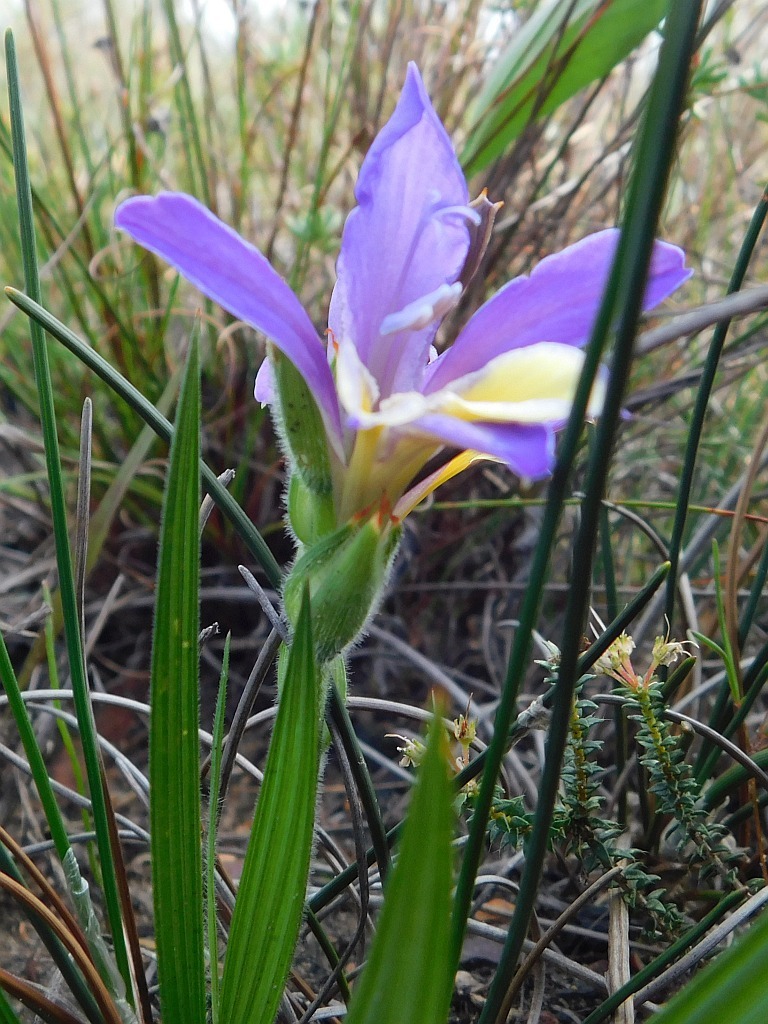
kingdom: Plantae
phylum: Tracheophyta
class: Liliopsida
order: Asparagales
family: Iridaceae
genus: Babiana
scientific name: Babiana patula
